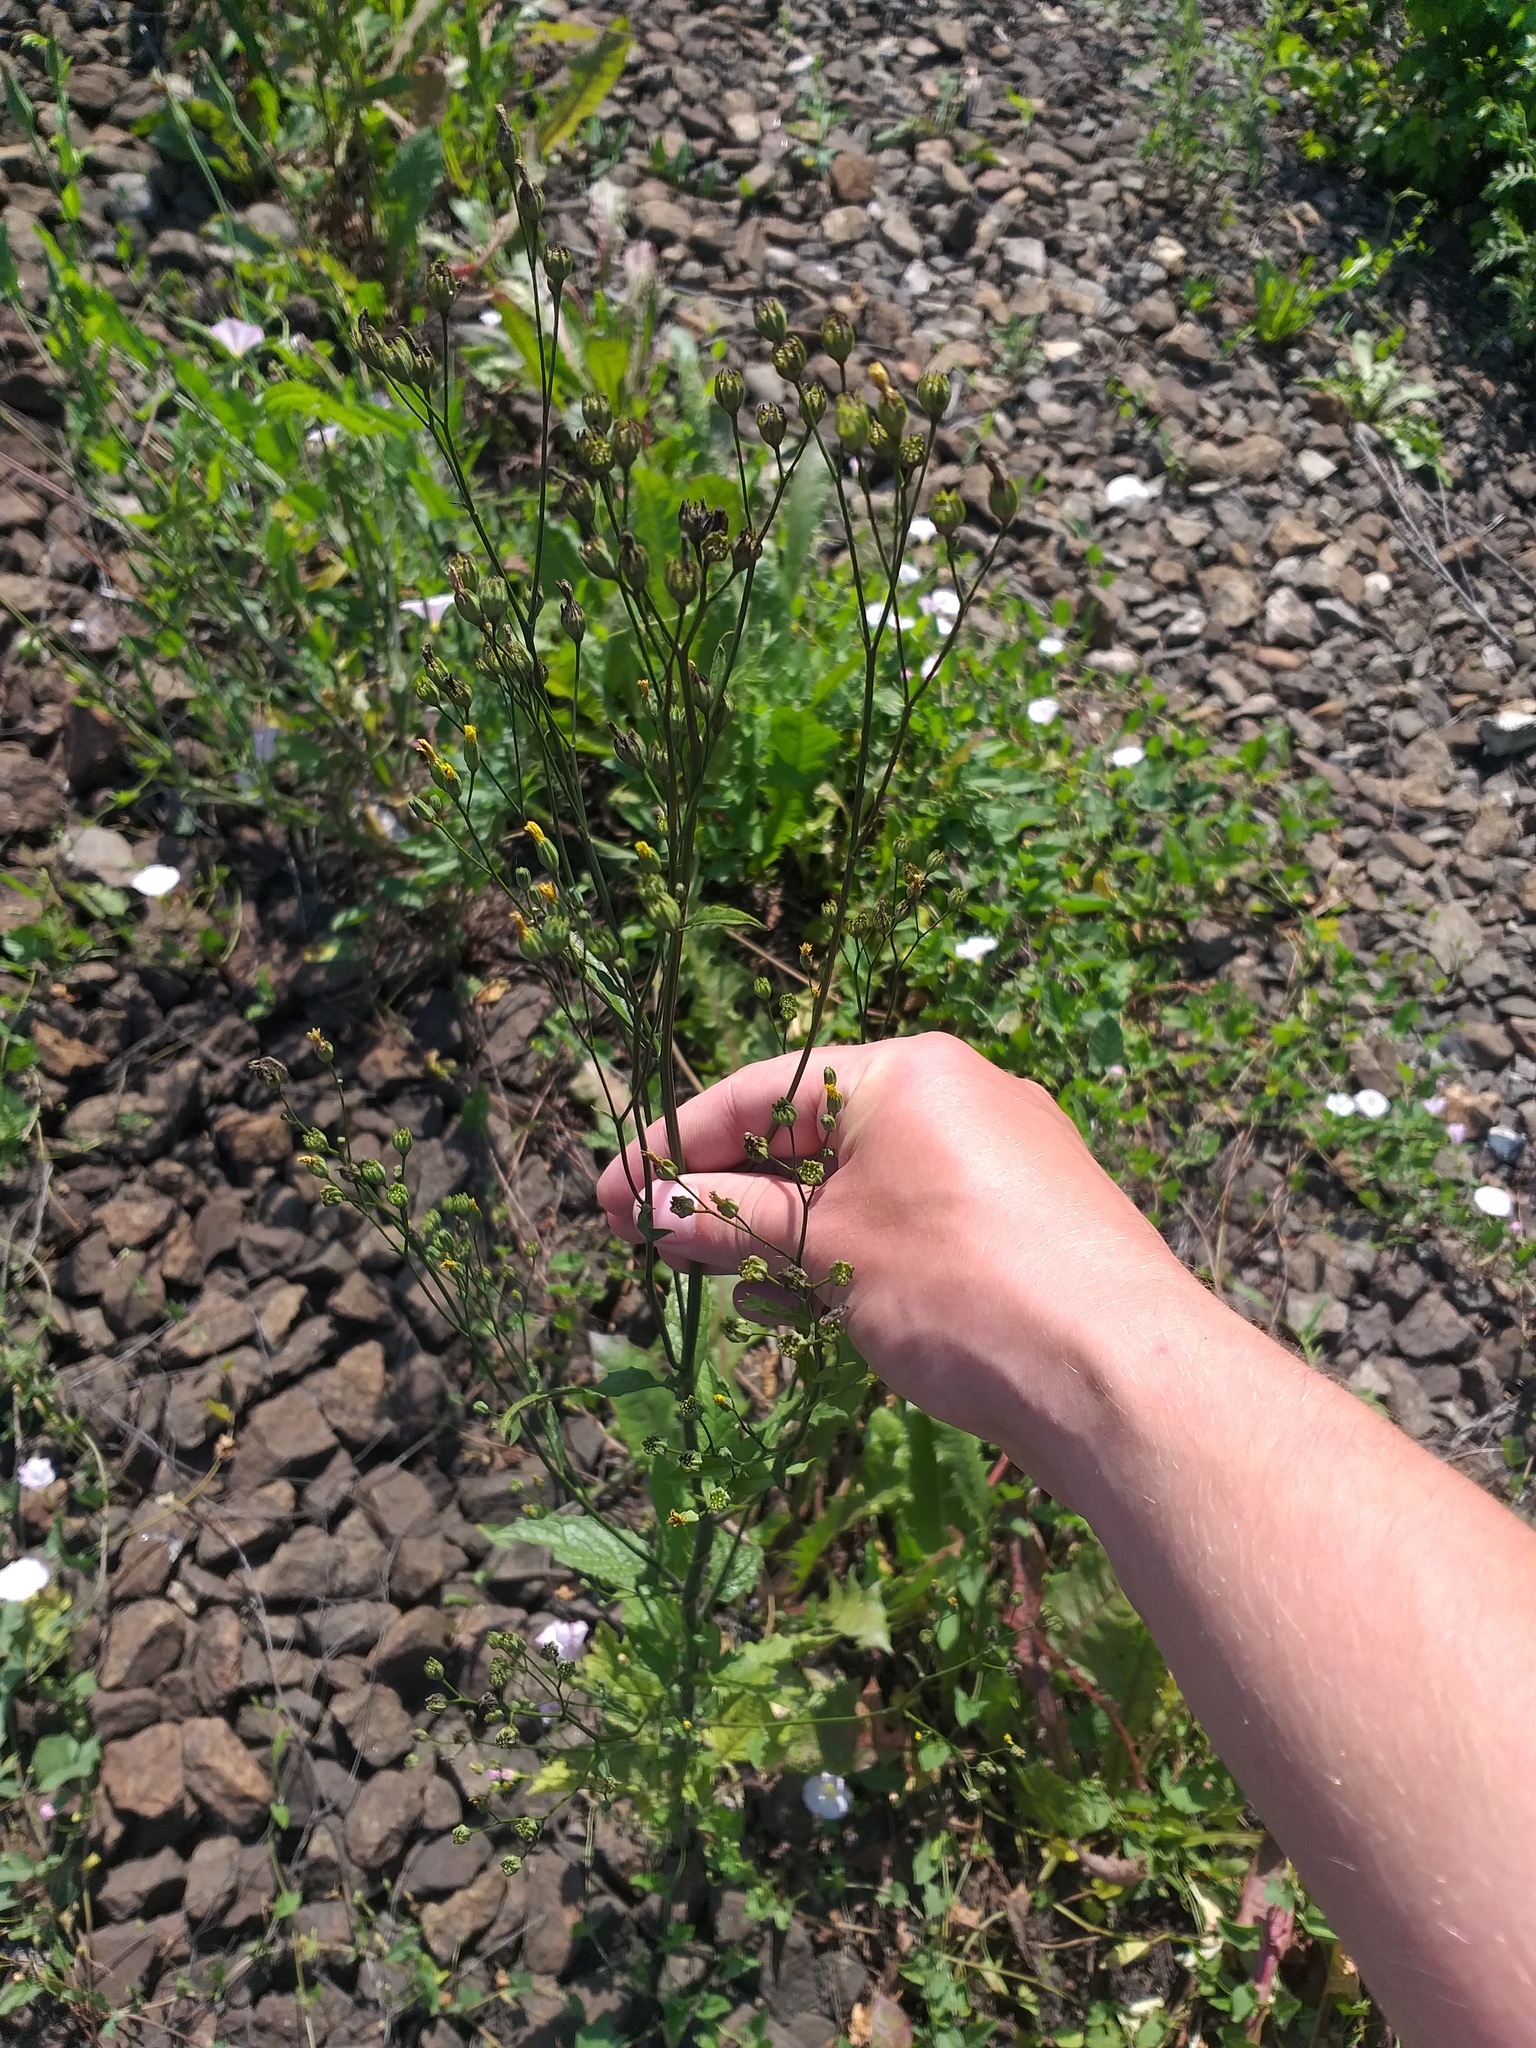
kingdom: Plantae
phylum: Tracheophyta
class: Magnoliopsida
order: Asterales
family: Asteraceae
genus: Lapsana
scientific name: Lapsana communis
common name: Nipplewort
